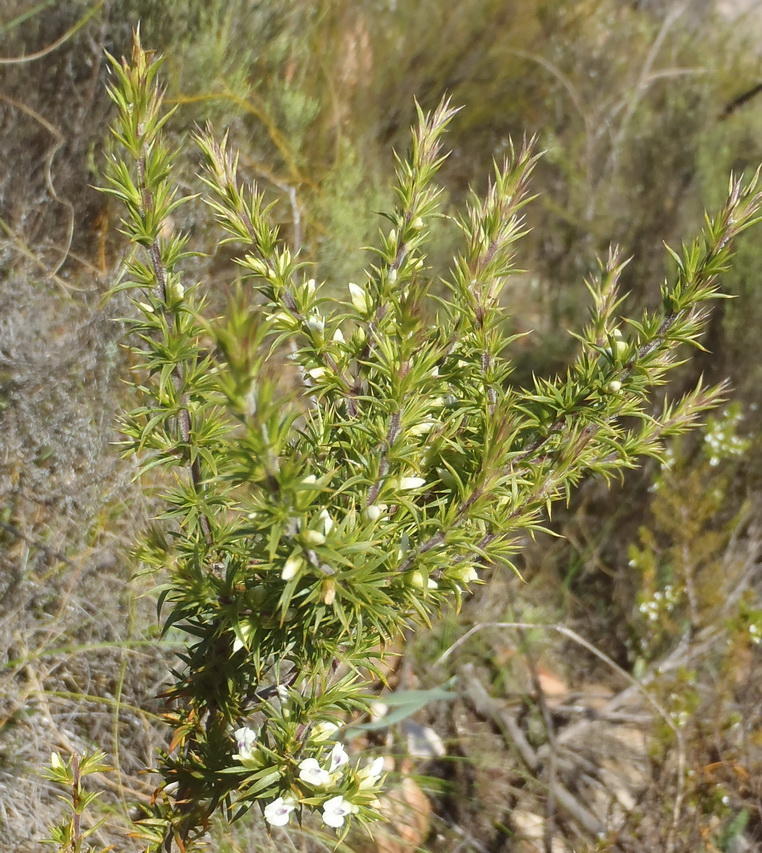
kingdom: Plantae
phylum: Tracheophyta
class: Magnoliopsida
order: Fabales
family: Polygalaceae
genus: Muraltia
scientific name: Muraltia ericifolia
